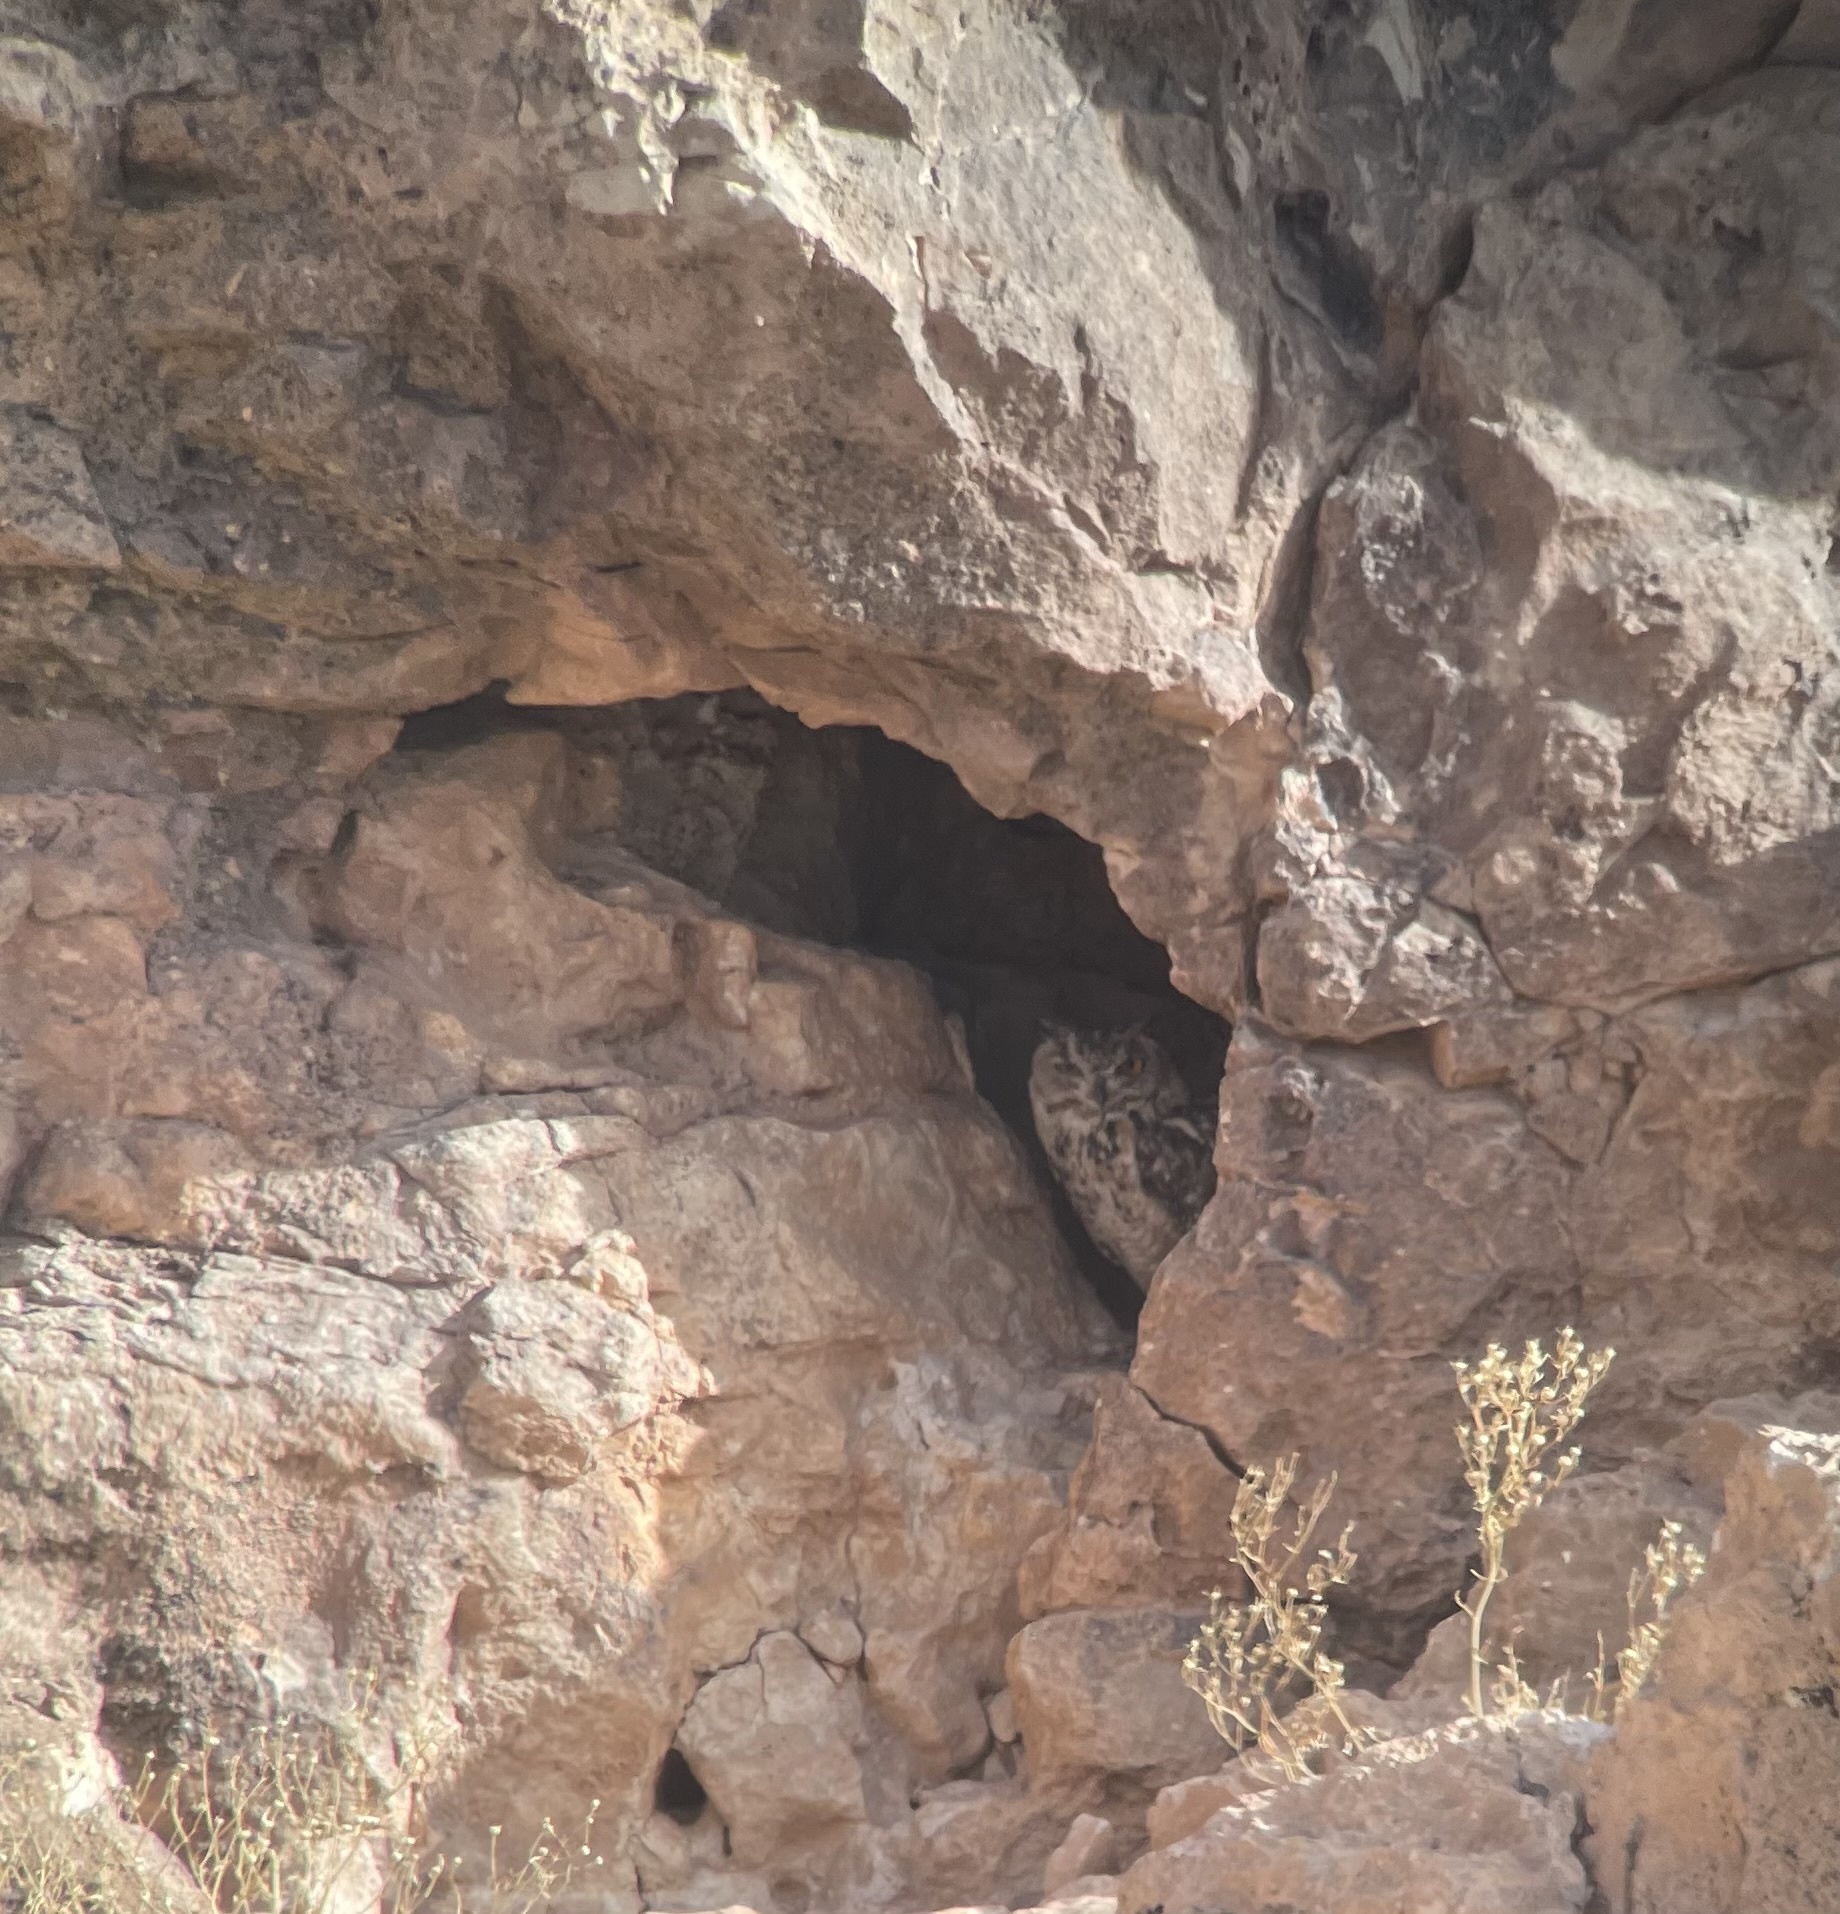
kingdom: Animalia
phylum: Chordata
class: Aves
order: Strigiformes
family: Strigidae
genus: Bubo
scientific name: Bubo ascalaphus
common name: Pharaoh eagle-owl
